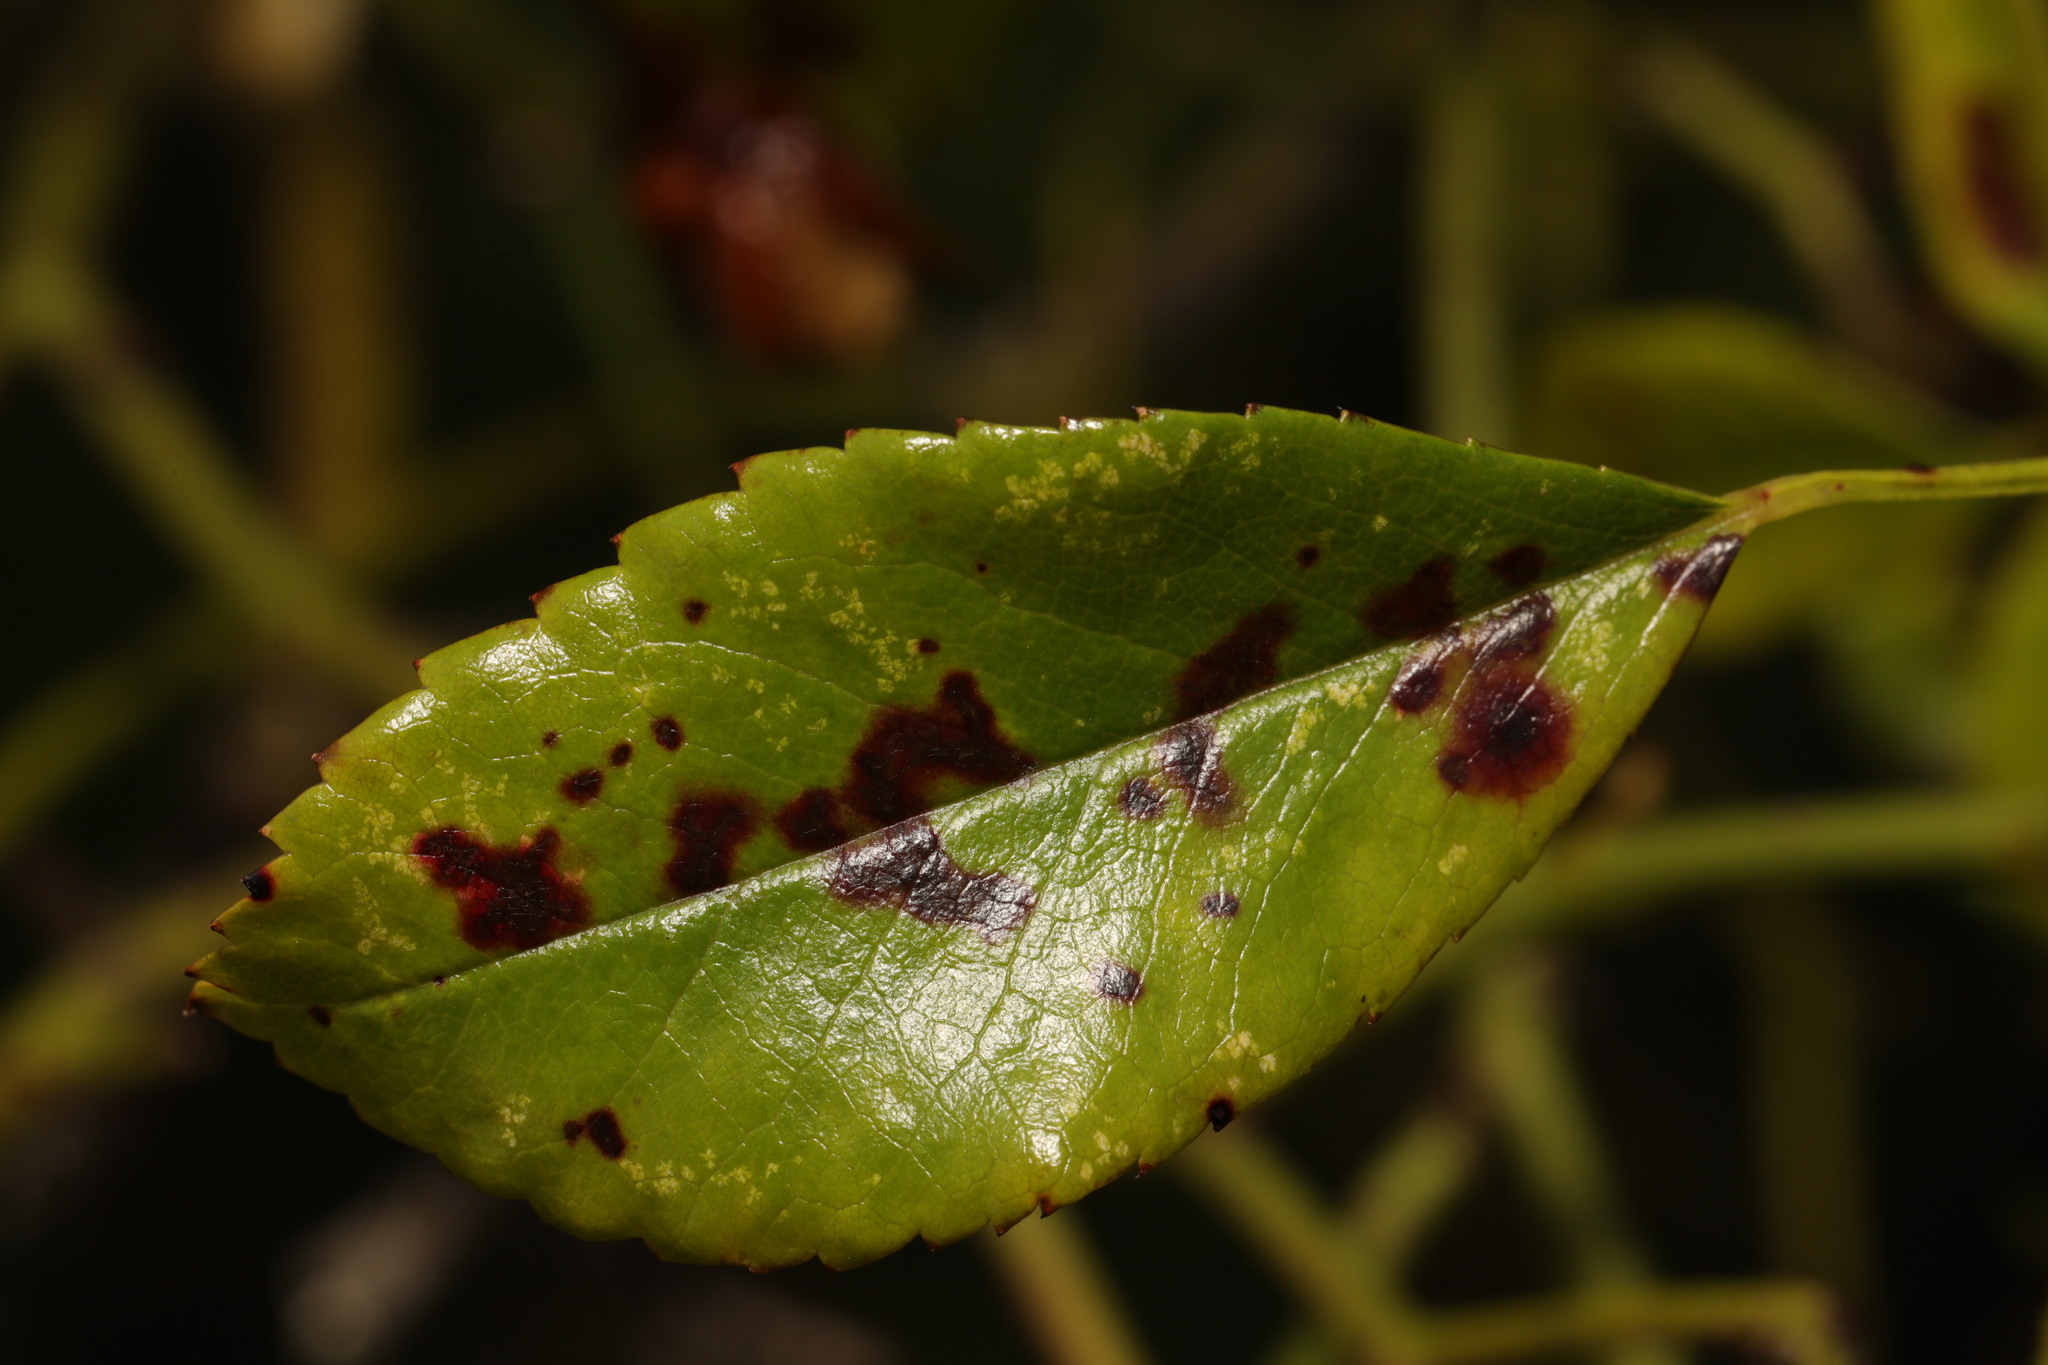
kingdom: Fungi
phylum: Ascomycota
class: Leotiomycetes
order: Helotiales
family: Drepanopezizaceae
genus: Diplocarpon
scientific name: Diplocarpon rosae
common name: Rose black-spot
